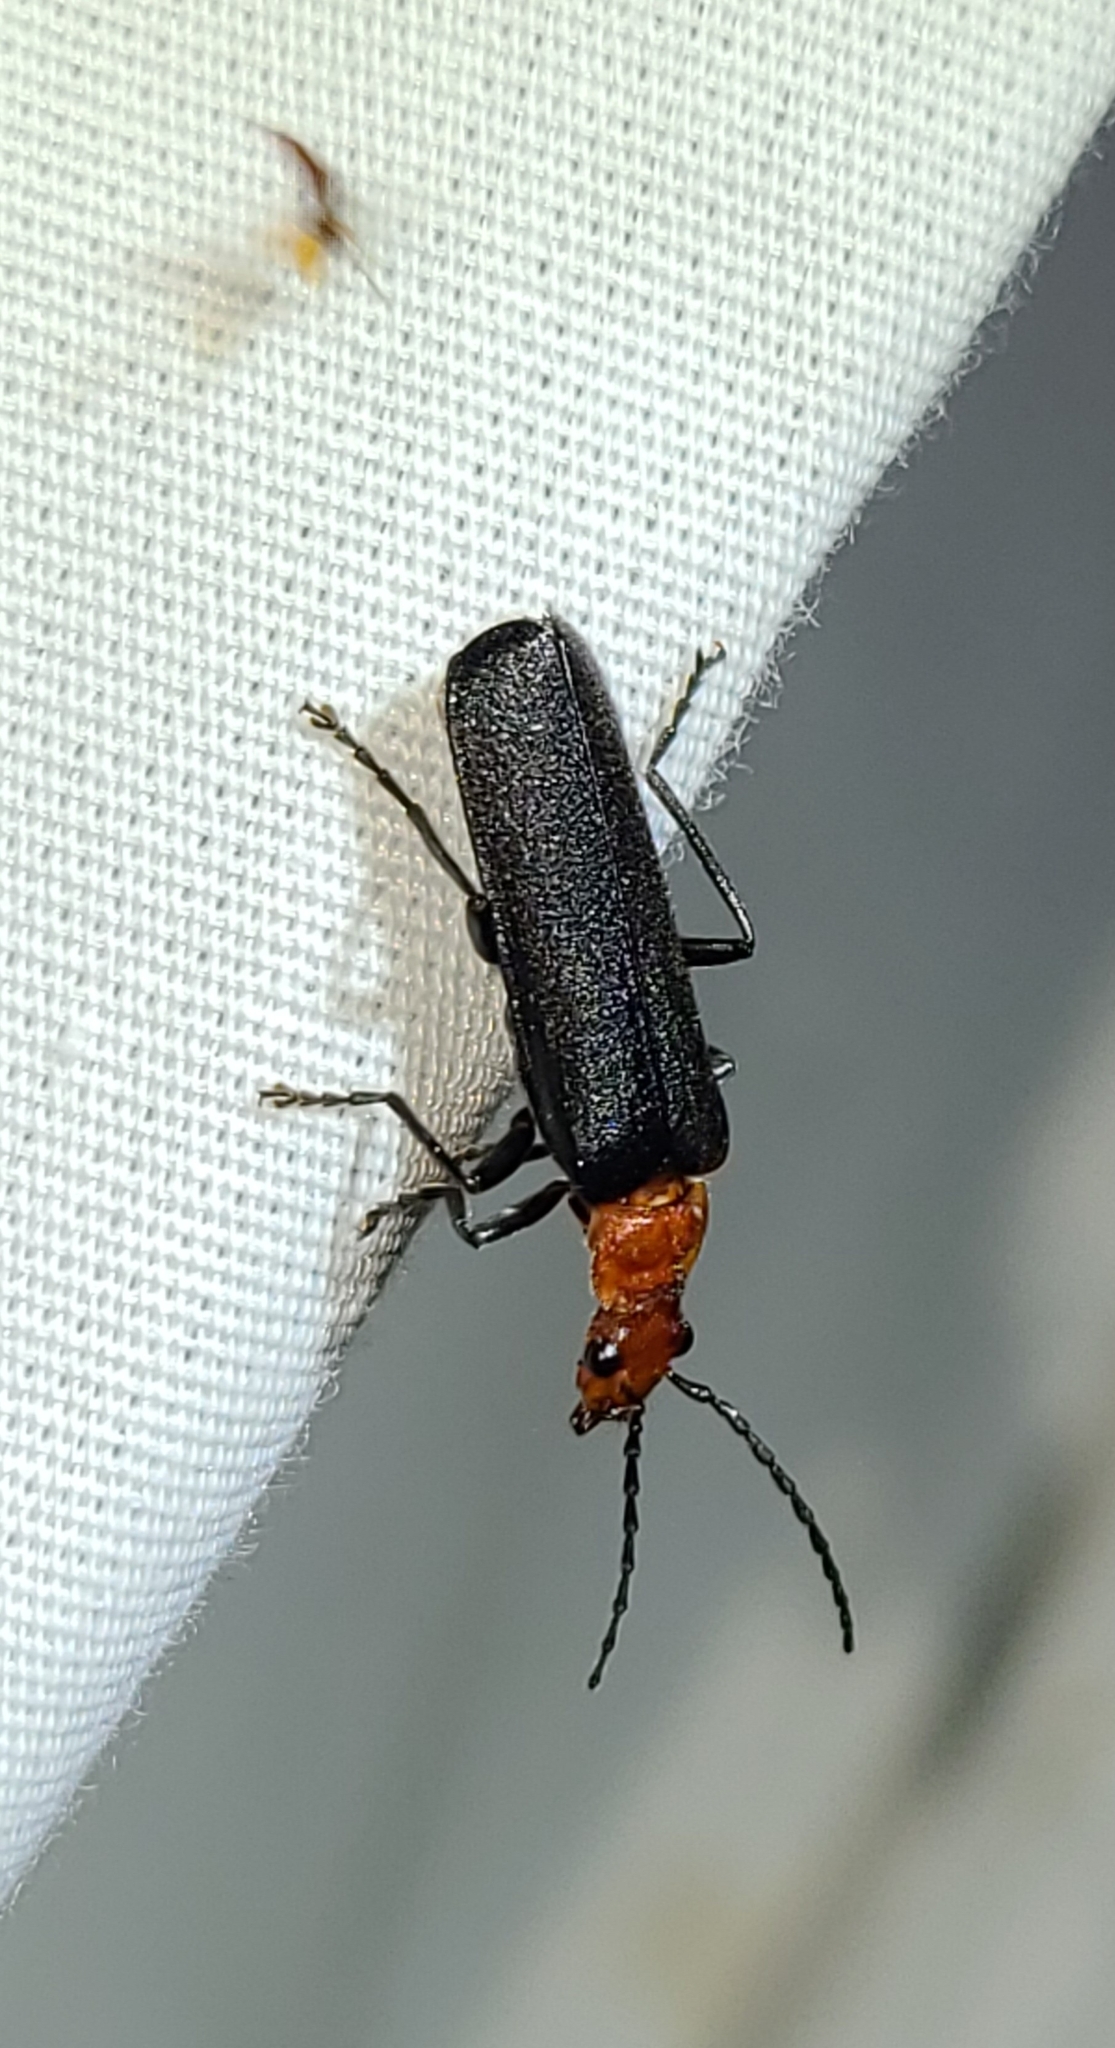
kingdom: Animalia
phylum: Arthropoda
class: Insecta
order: Coleoptera
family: Cantharidae
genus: Podabrus
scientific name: Podabrus pruinosus
